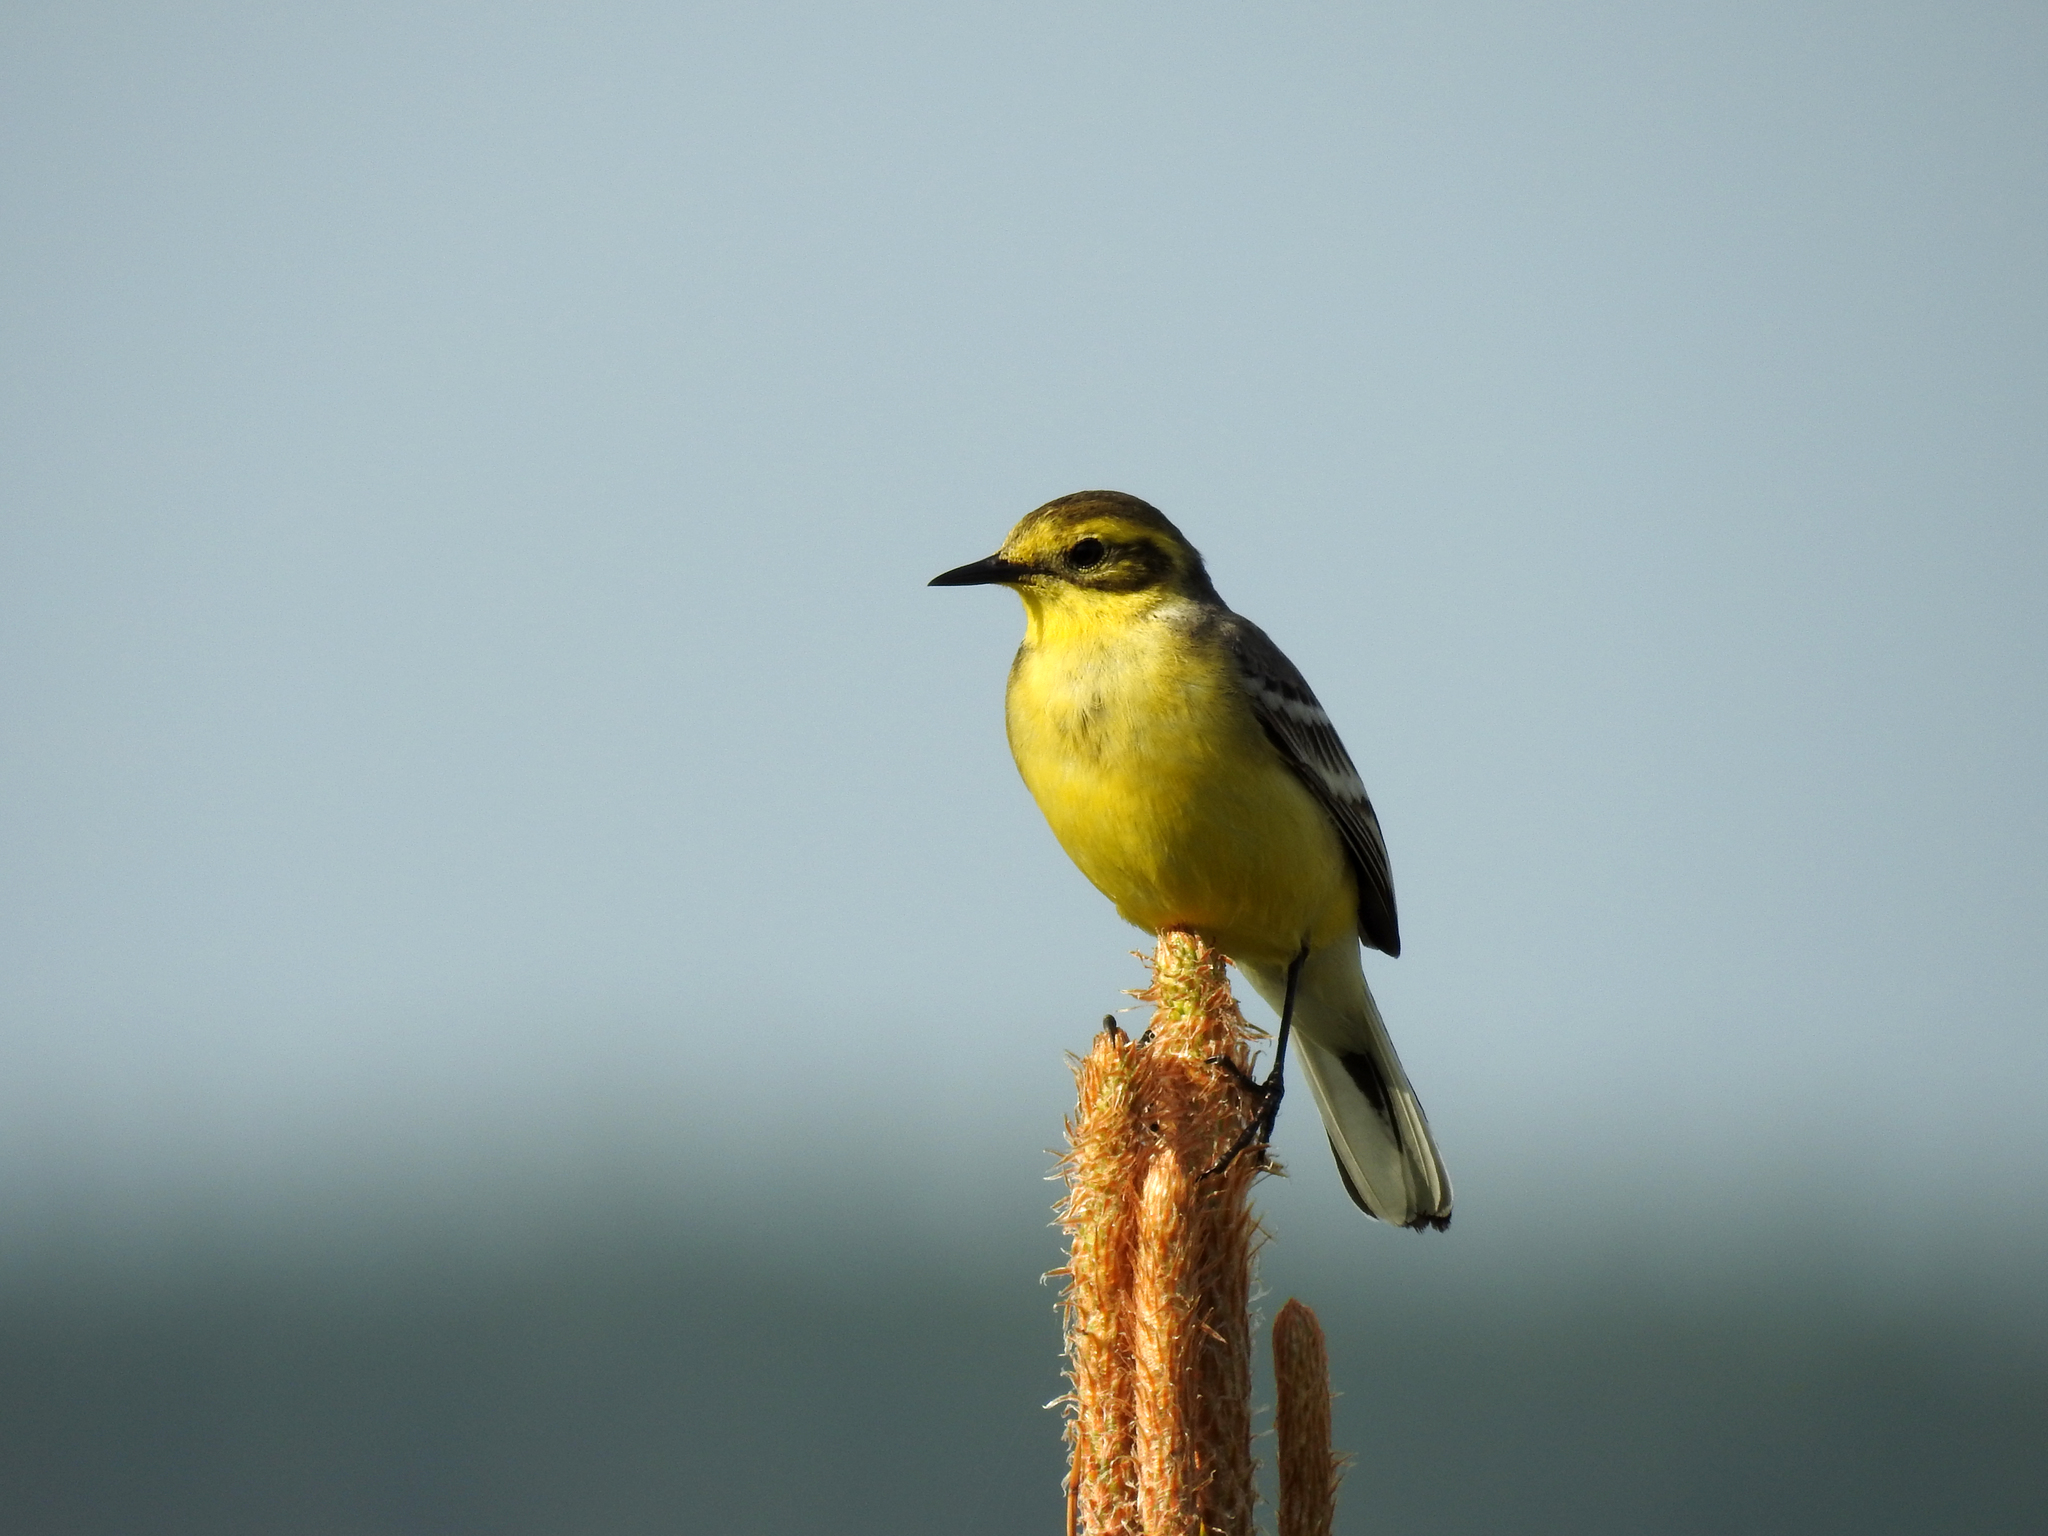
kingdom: Animalia
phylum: Chordata
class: Aves
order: Passeriformes
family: Motacillidae
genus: Motacilla
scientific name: Motacilla citreola
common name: Citrine wagtail
